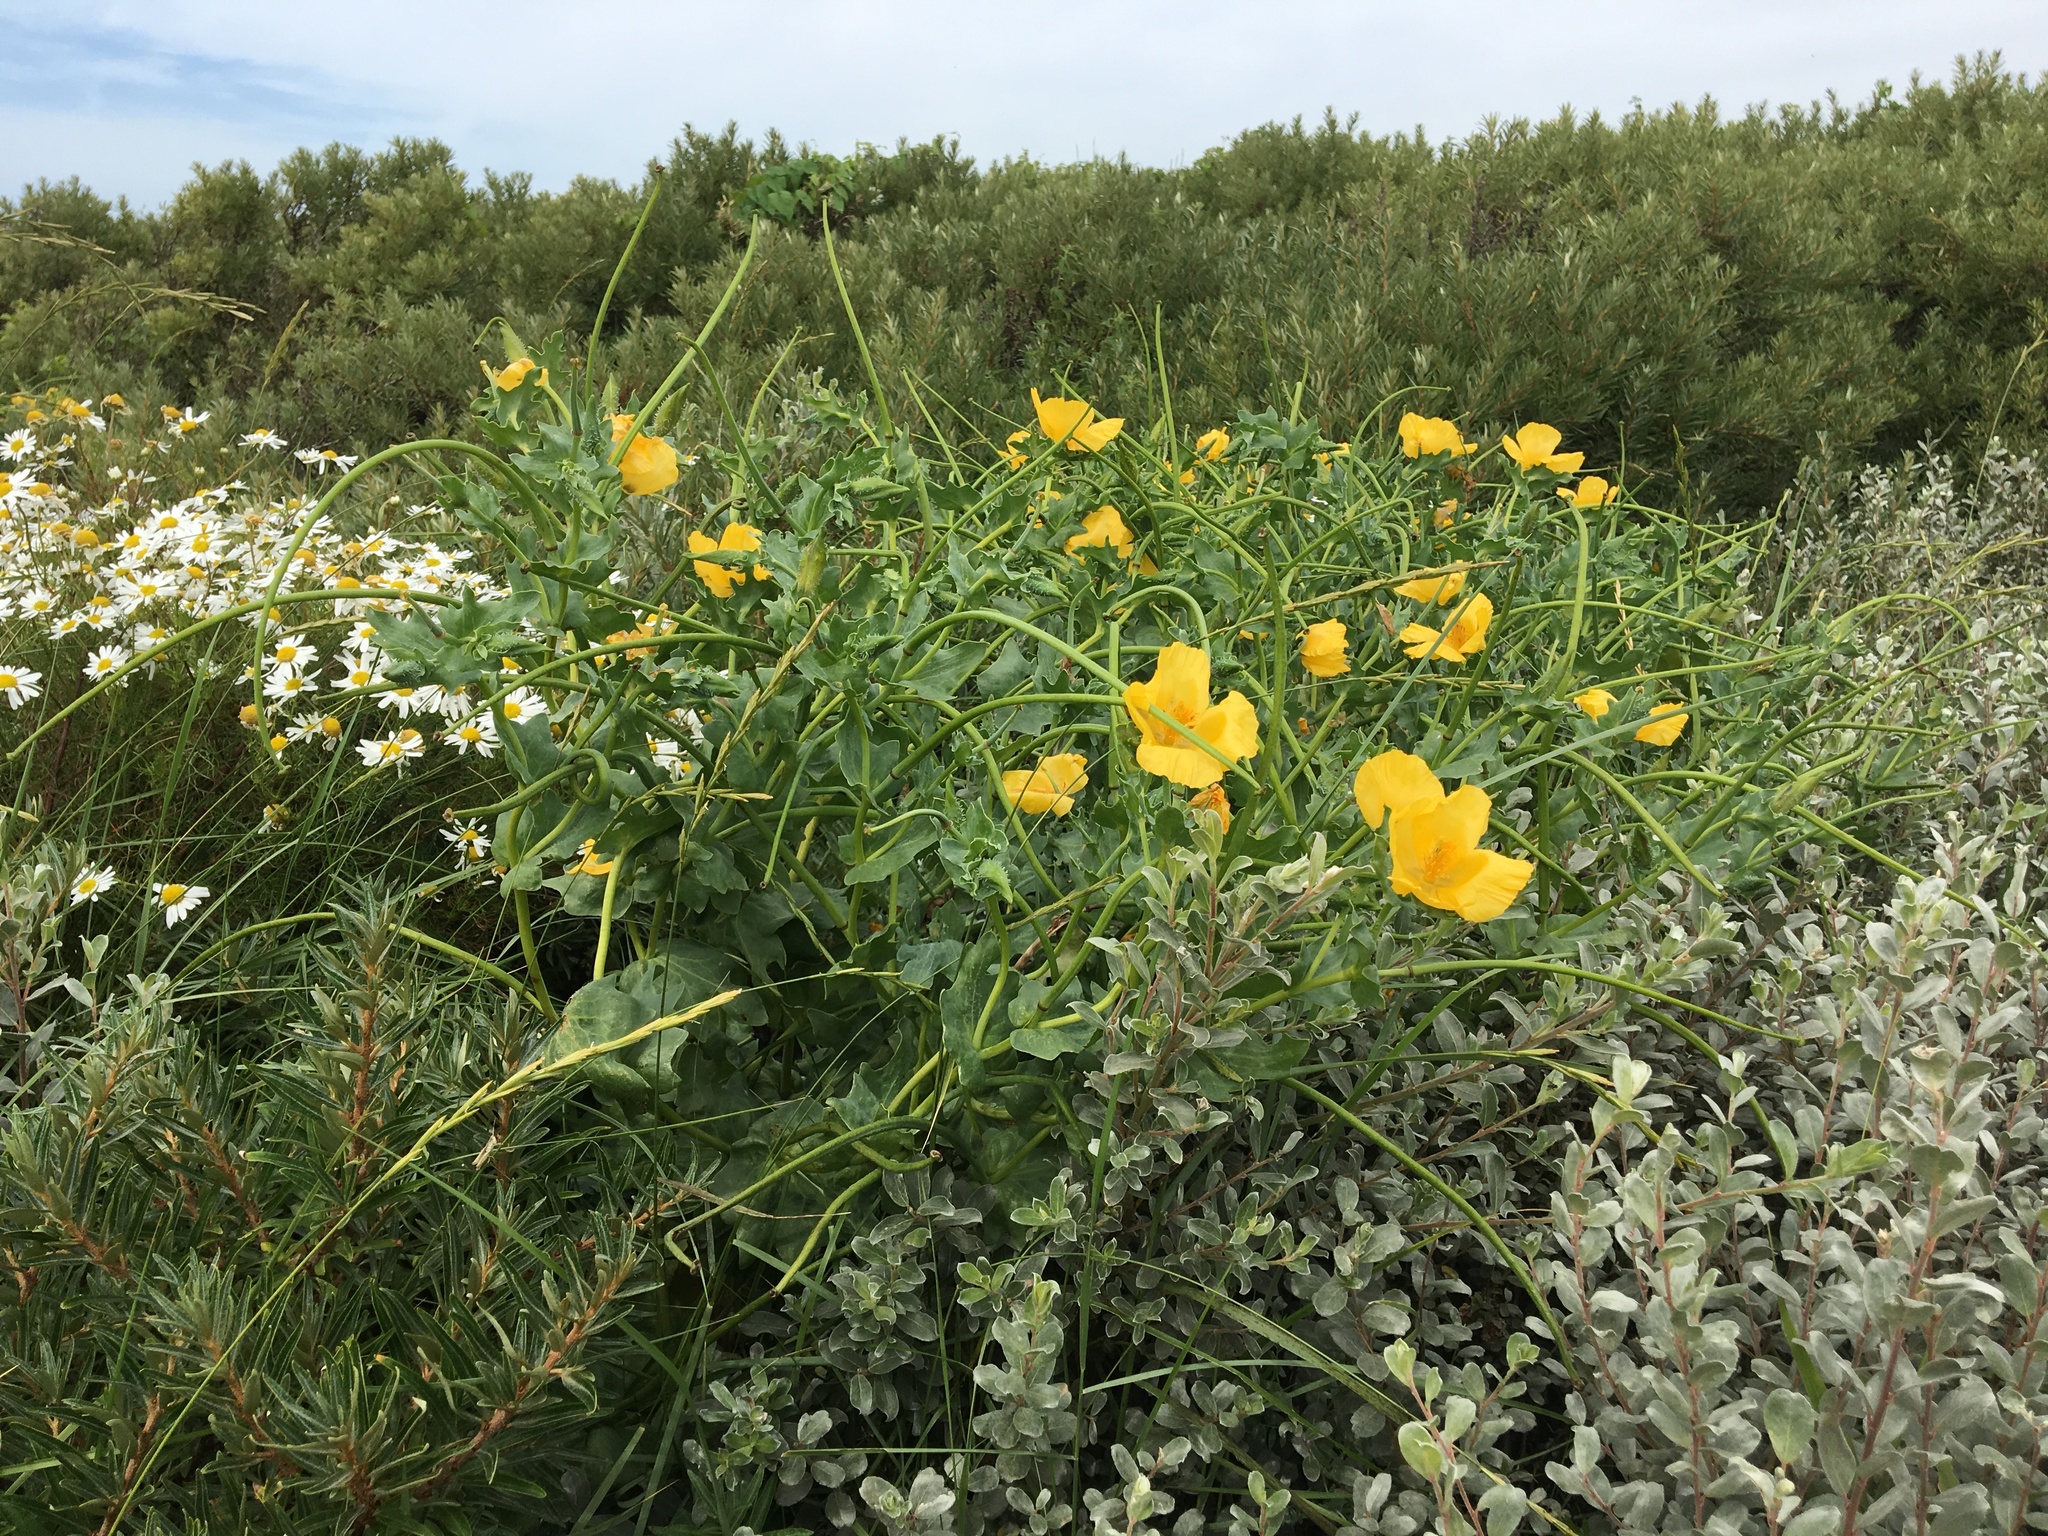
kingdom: Plantae
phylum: Tracheophyta
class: Magnoliopsida
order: Ranunculales
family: Papaveraceae
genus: Glaucium
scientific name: Glaucium flavum
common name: Yellow horned-poppy
